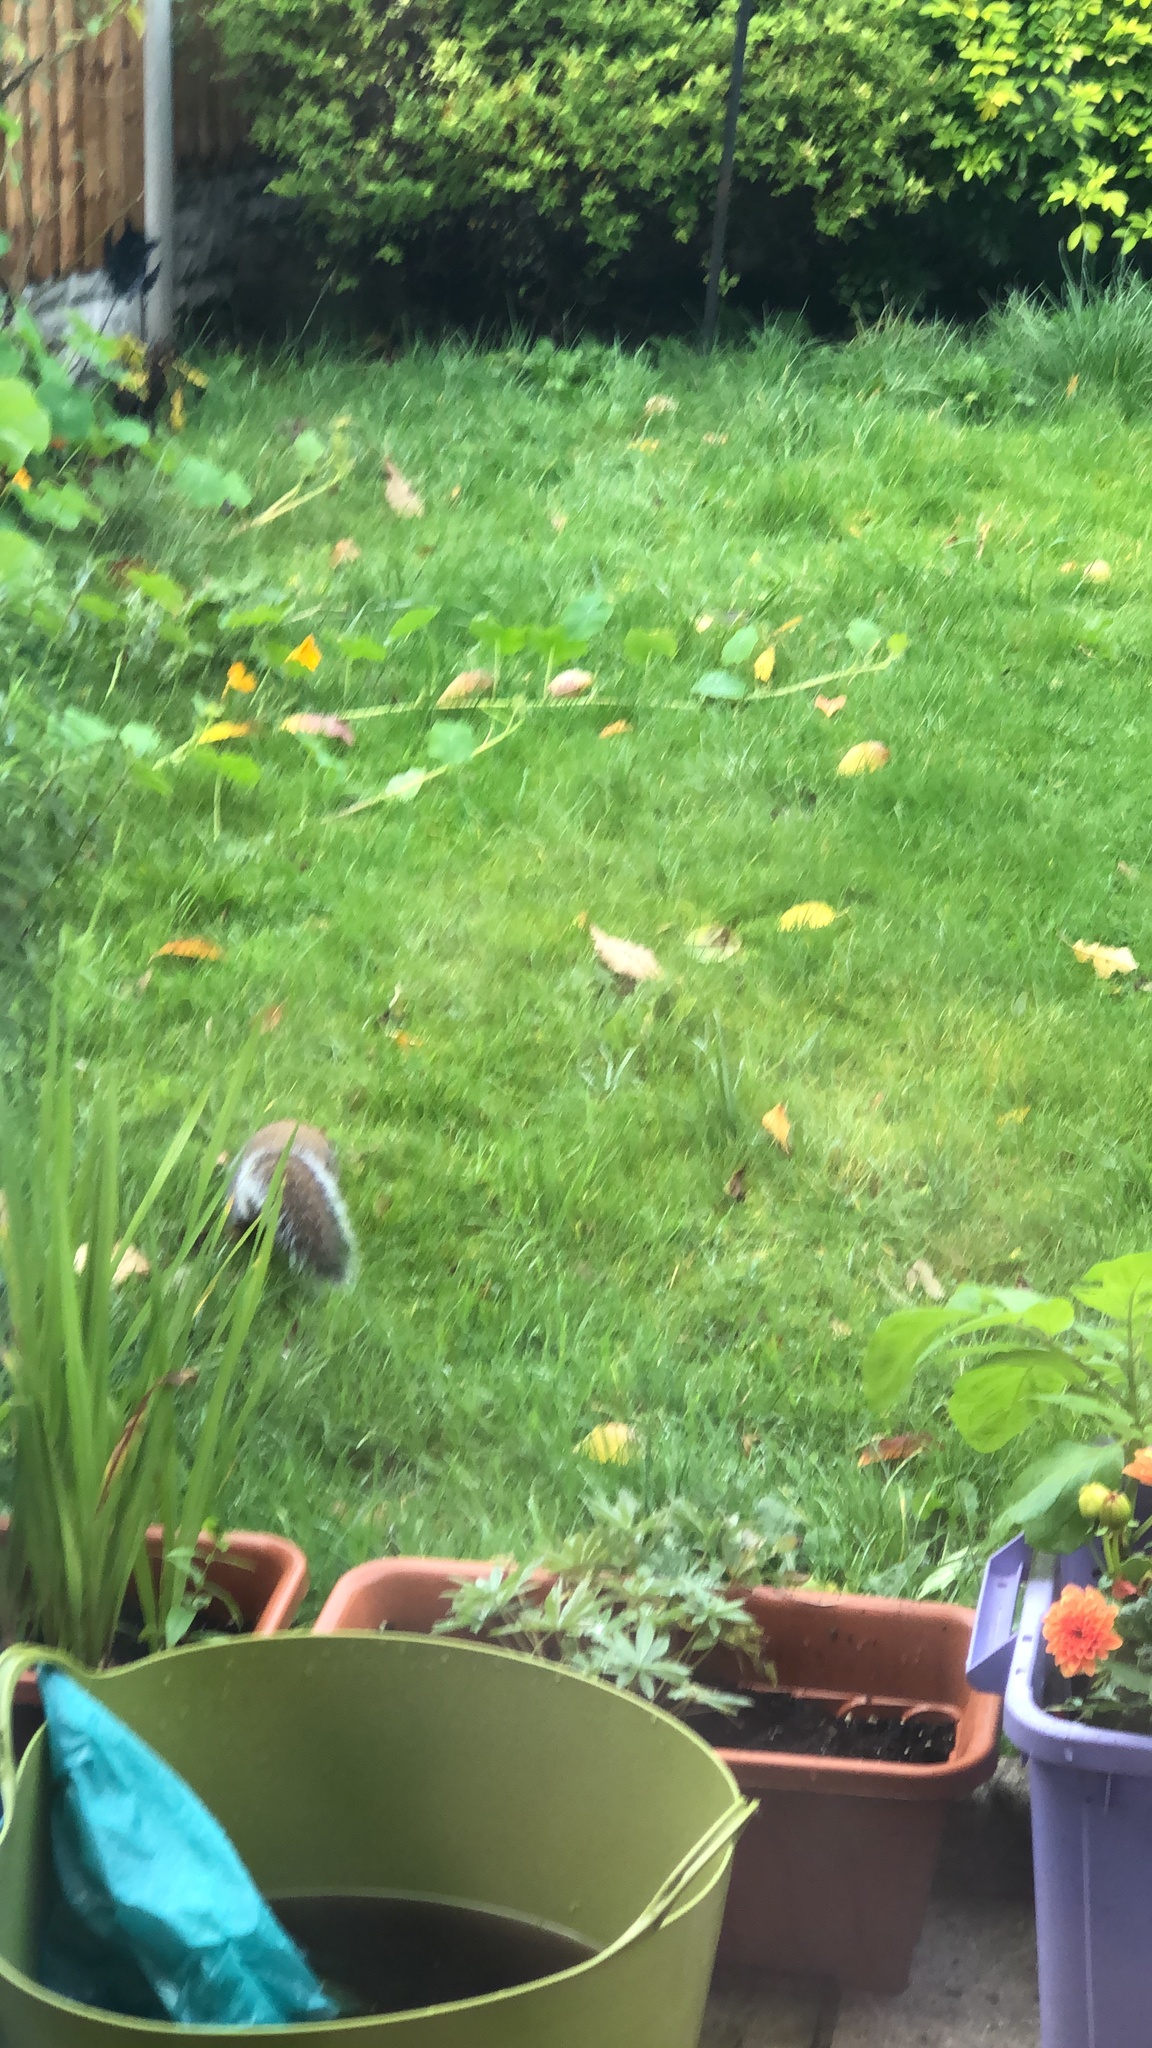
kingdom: Animalia
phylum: Chordata
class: Mammalia
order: Rodentia
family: Sciuridae
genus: Sciurus
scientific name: Sciurus carolinensis
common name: Eastern gray squirrel
